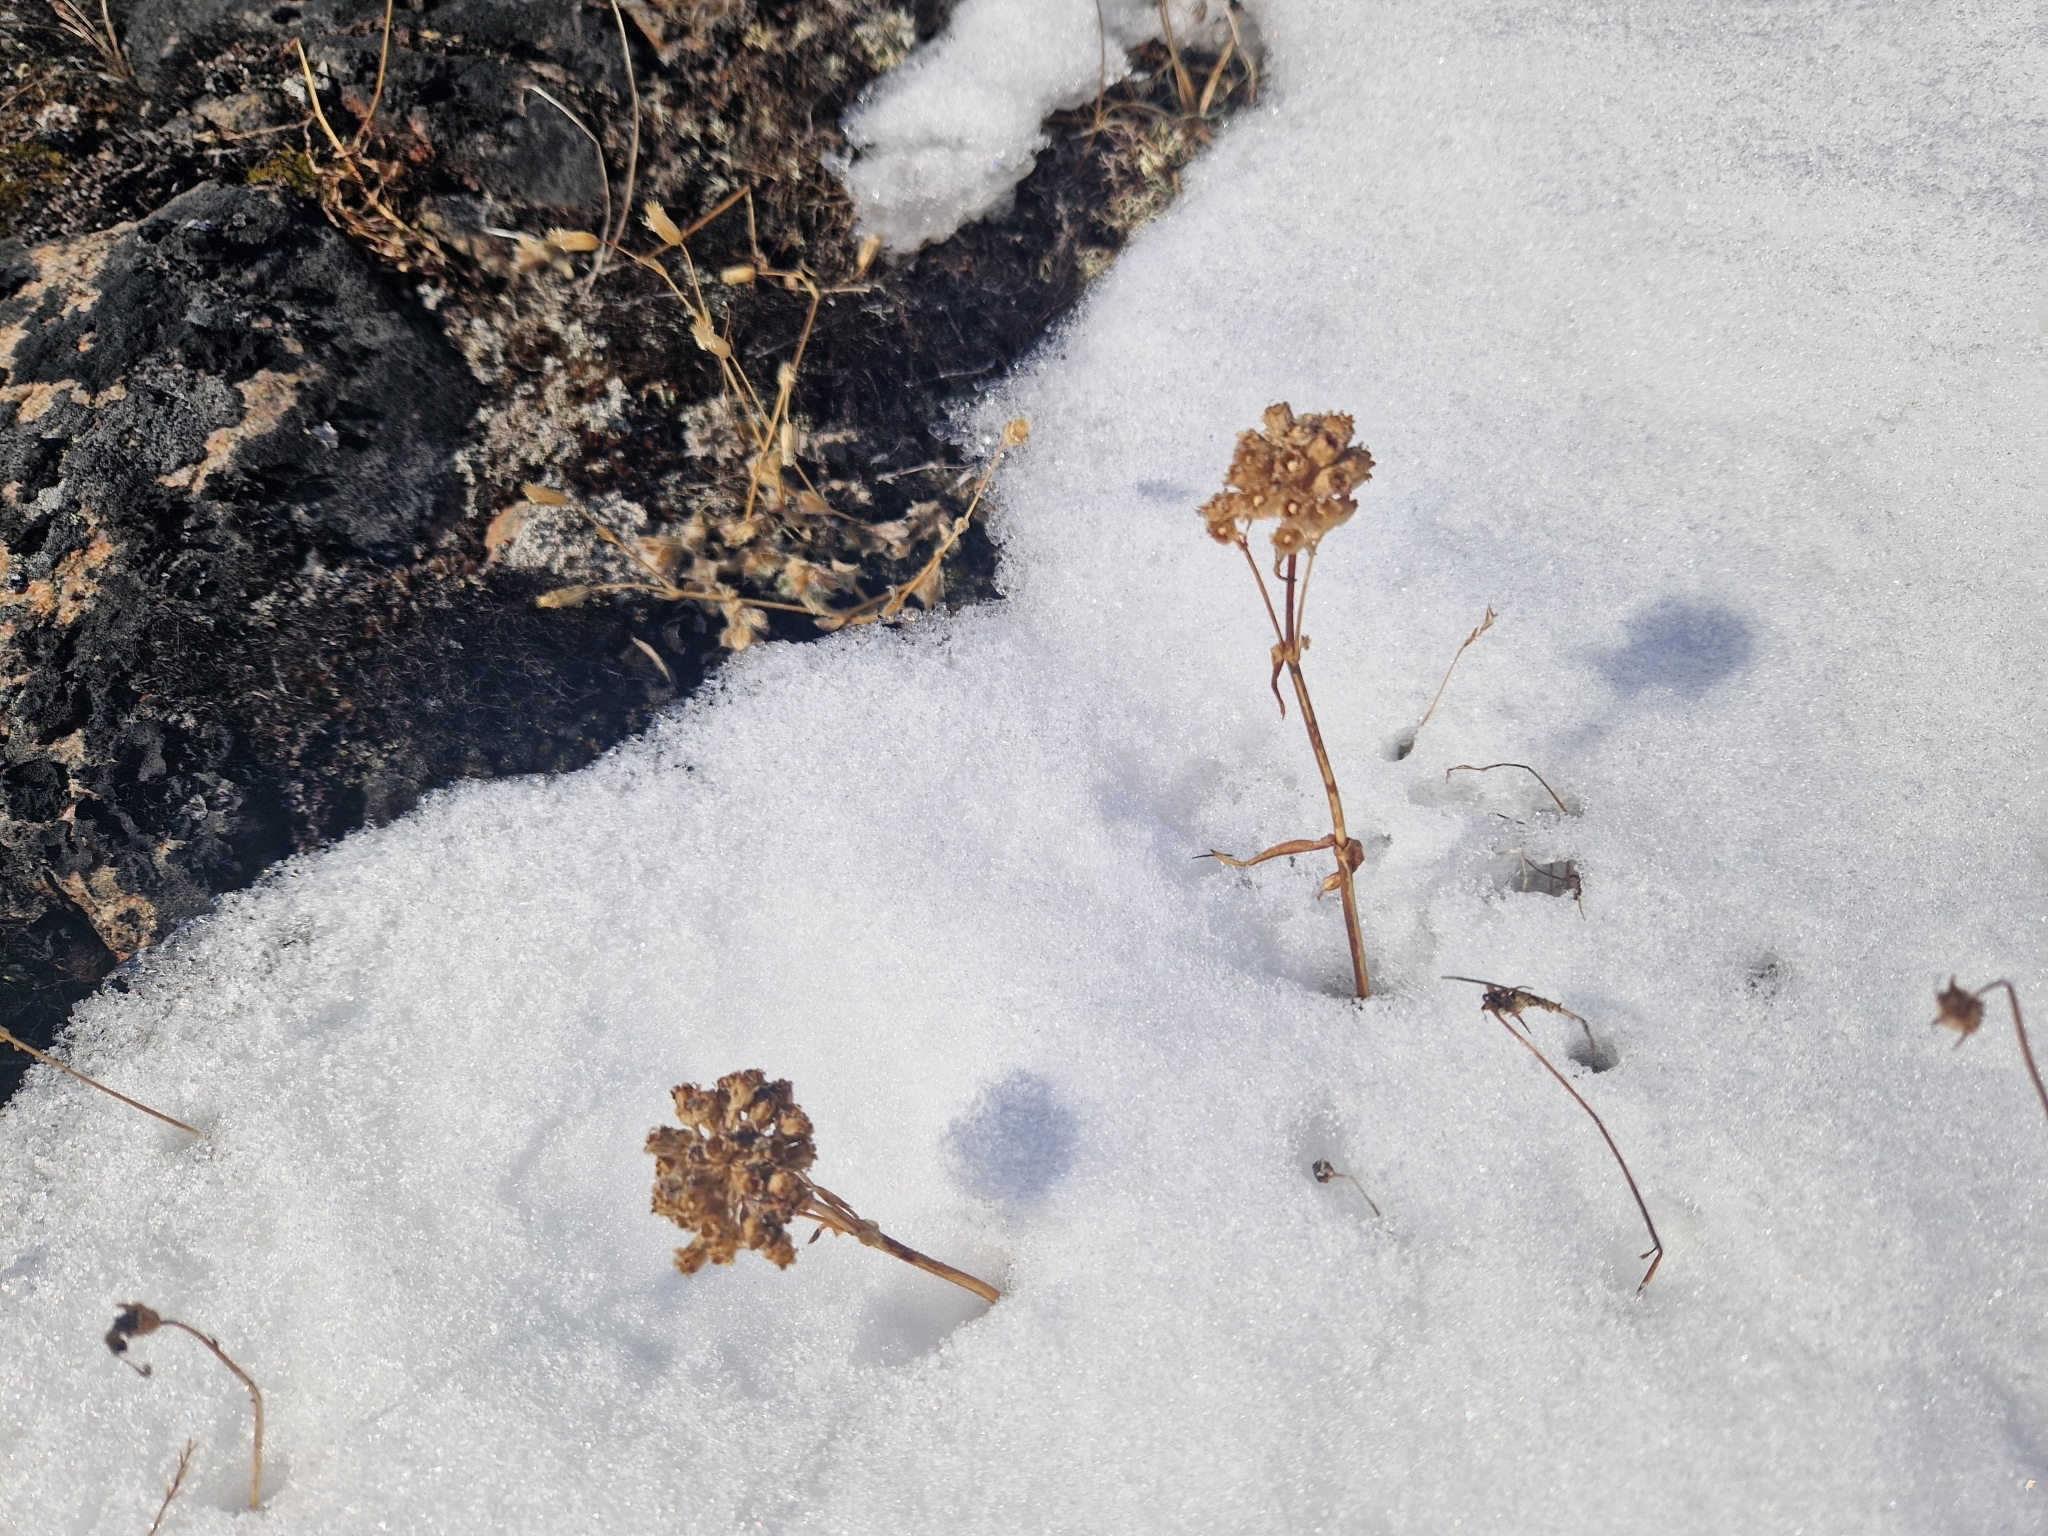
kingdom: Plantae
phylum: Tracheophyta
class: Magnoliopsida
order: Caryophyllales
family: Caryophyllaceae
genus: Viscaria
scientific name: Viscaria alpina
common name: Alpine campion
